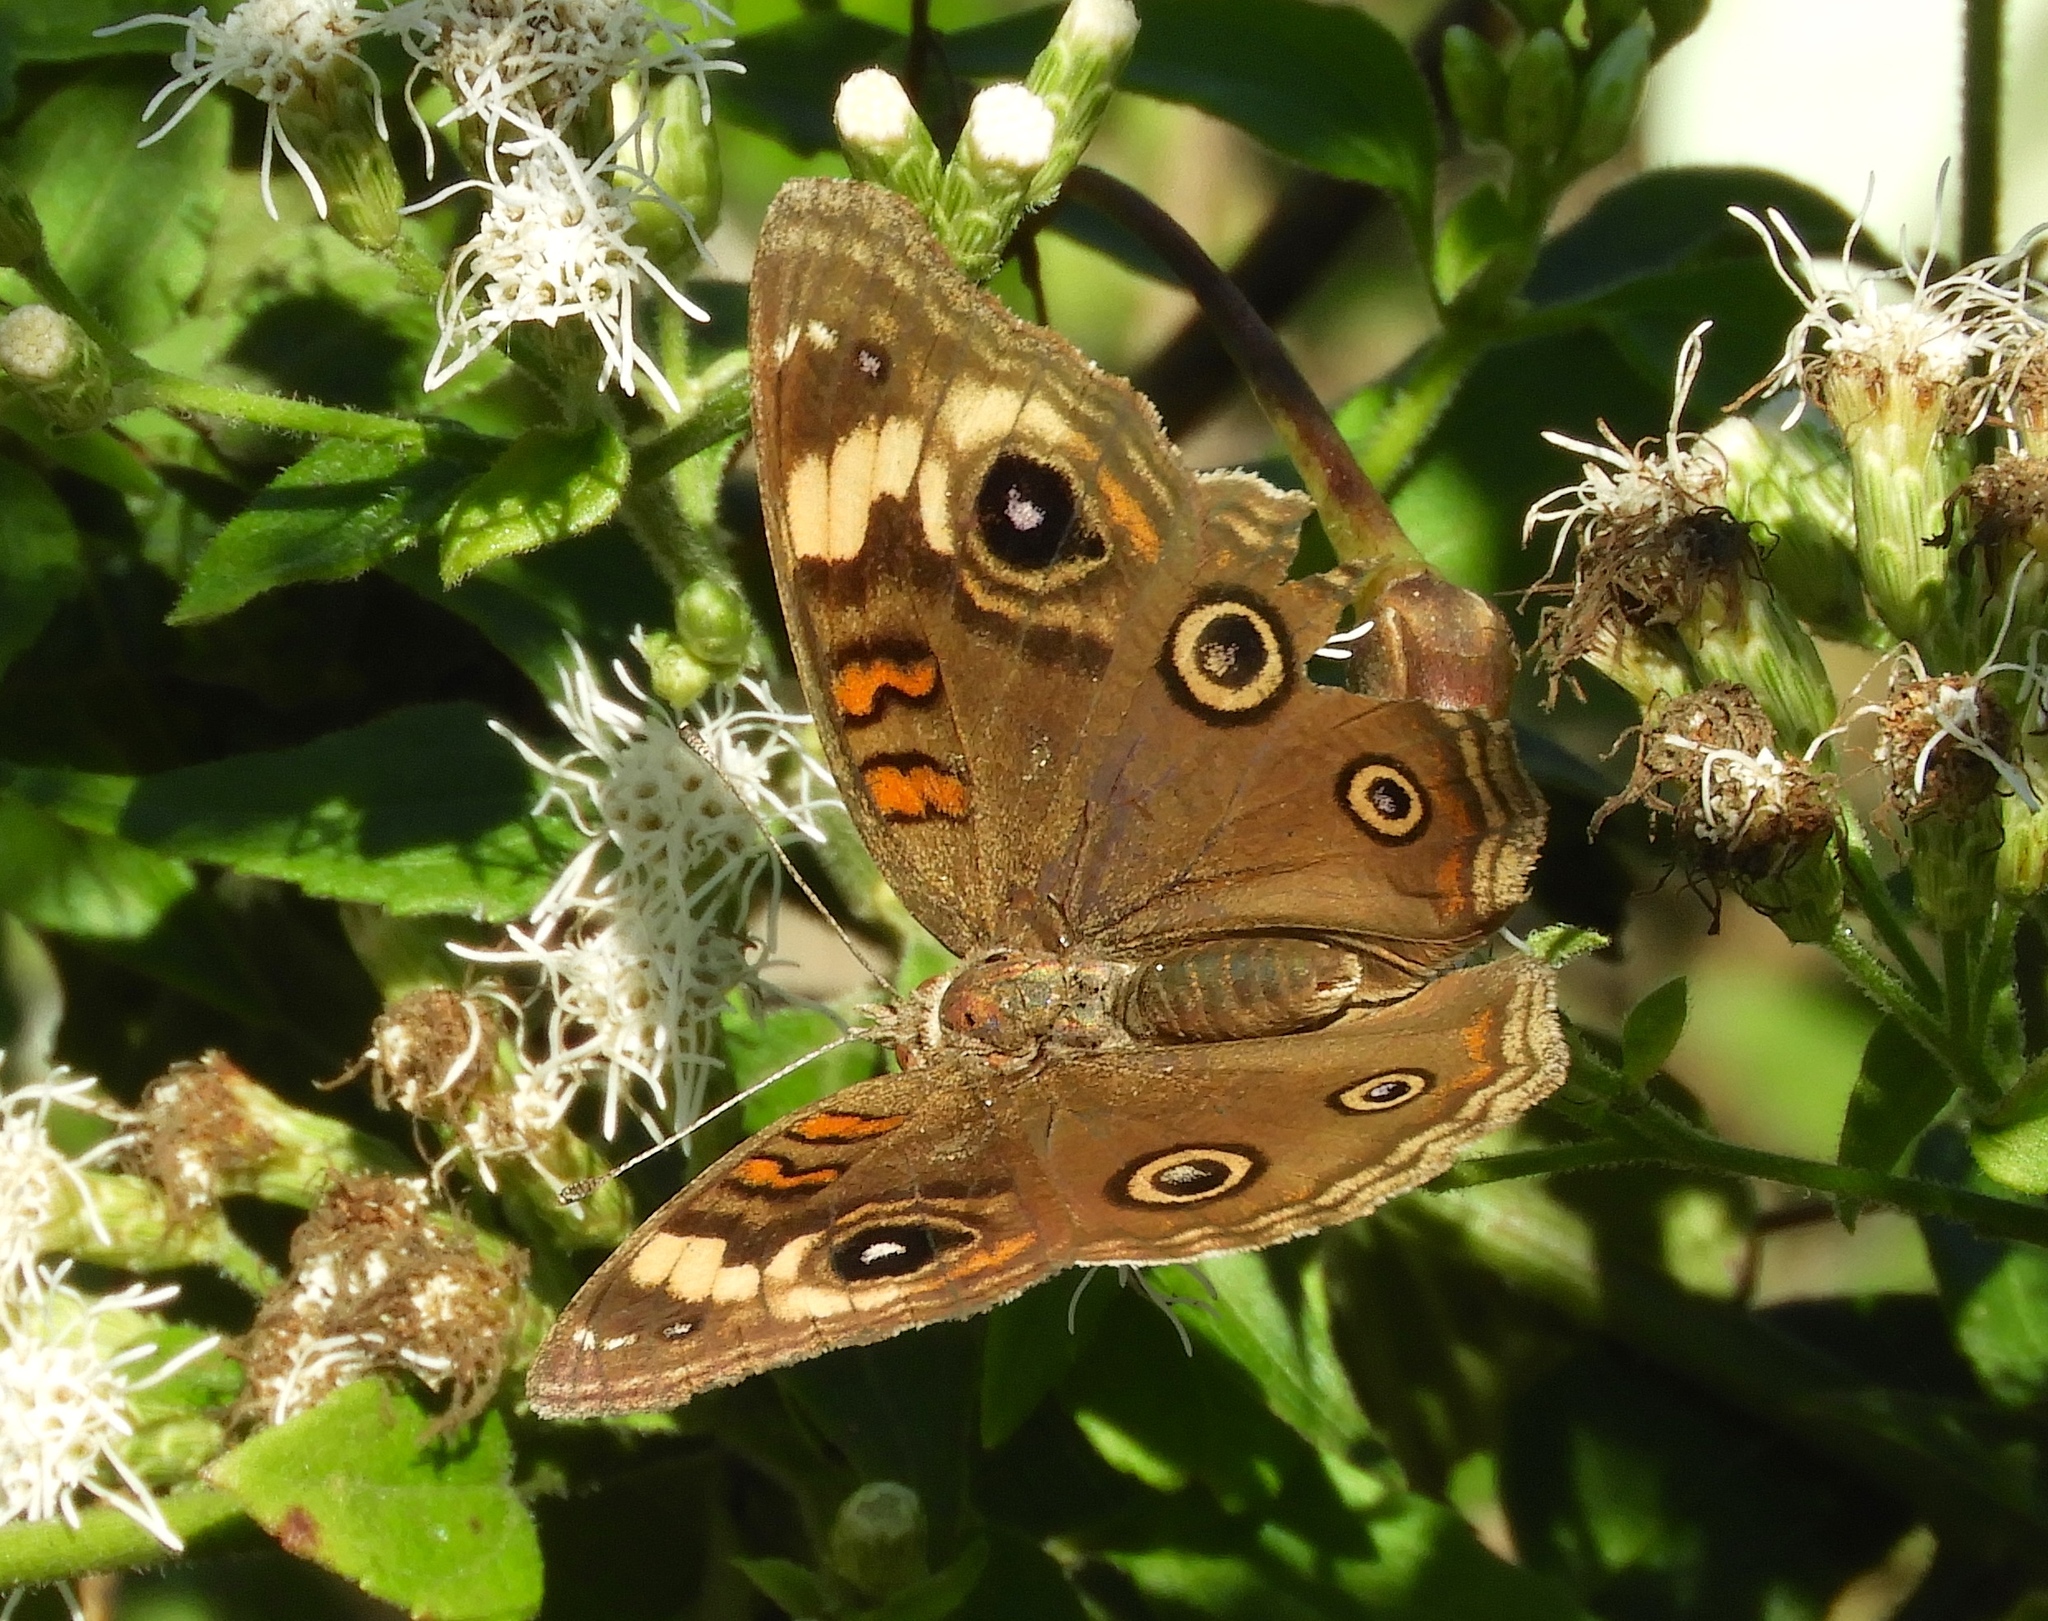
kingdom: Animalia
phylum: Arthropoda
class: Insecta
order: Lepidoptera
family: Nymphalidae
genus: Junonia
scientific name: Junonia pacoma
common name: Pacific mangrove buckeye
